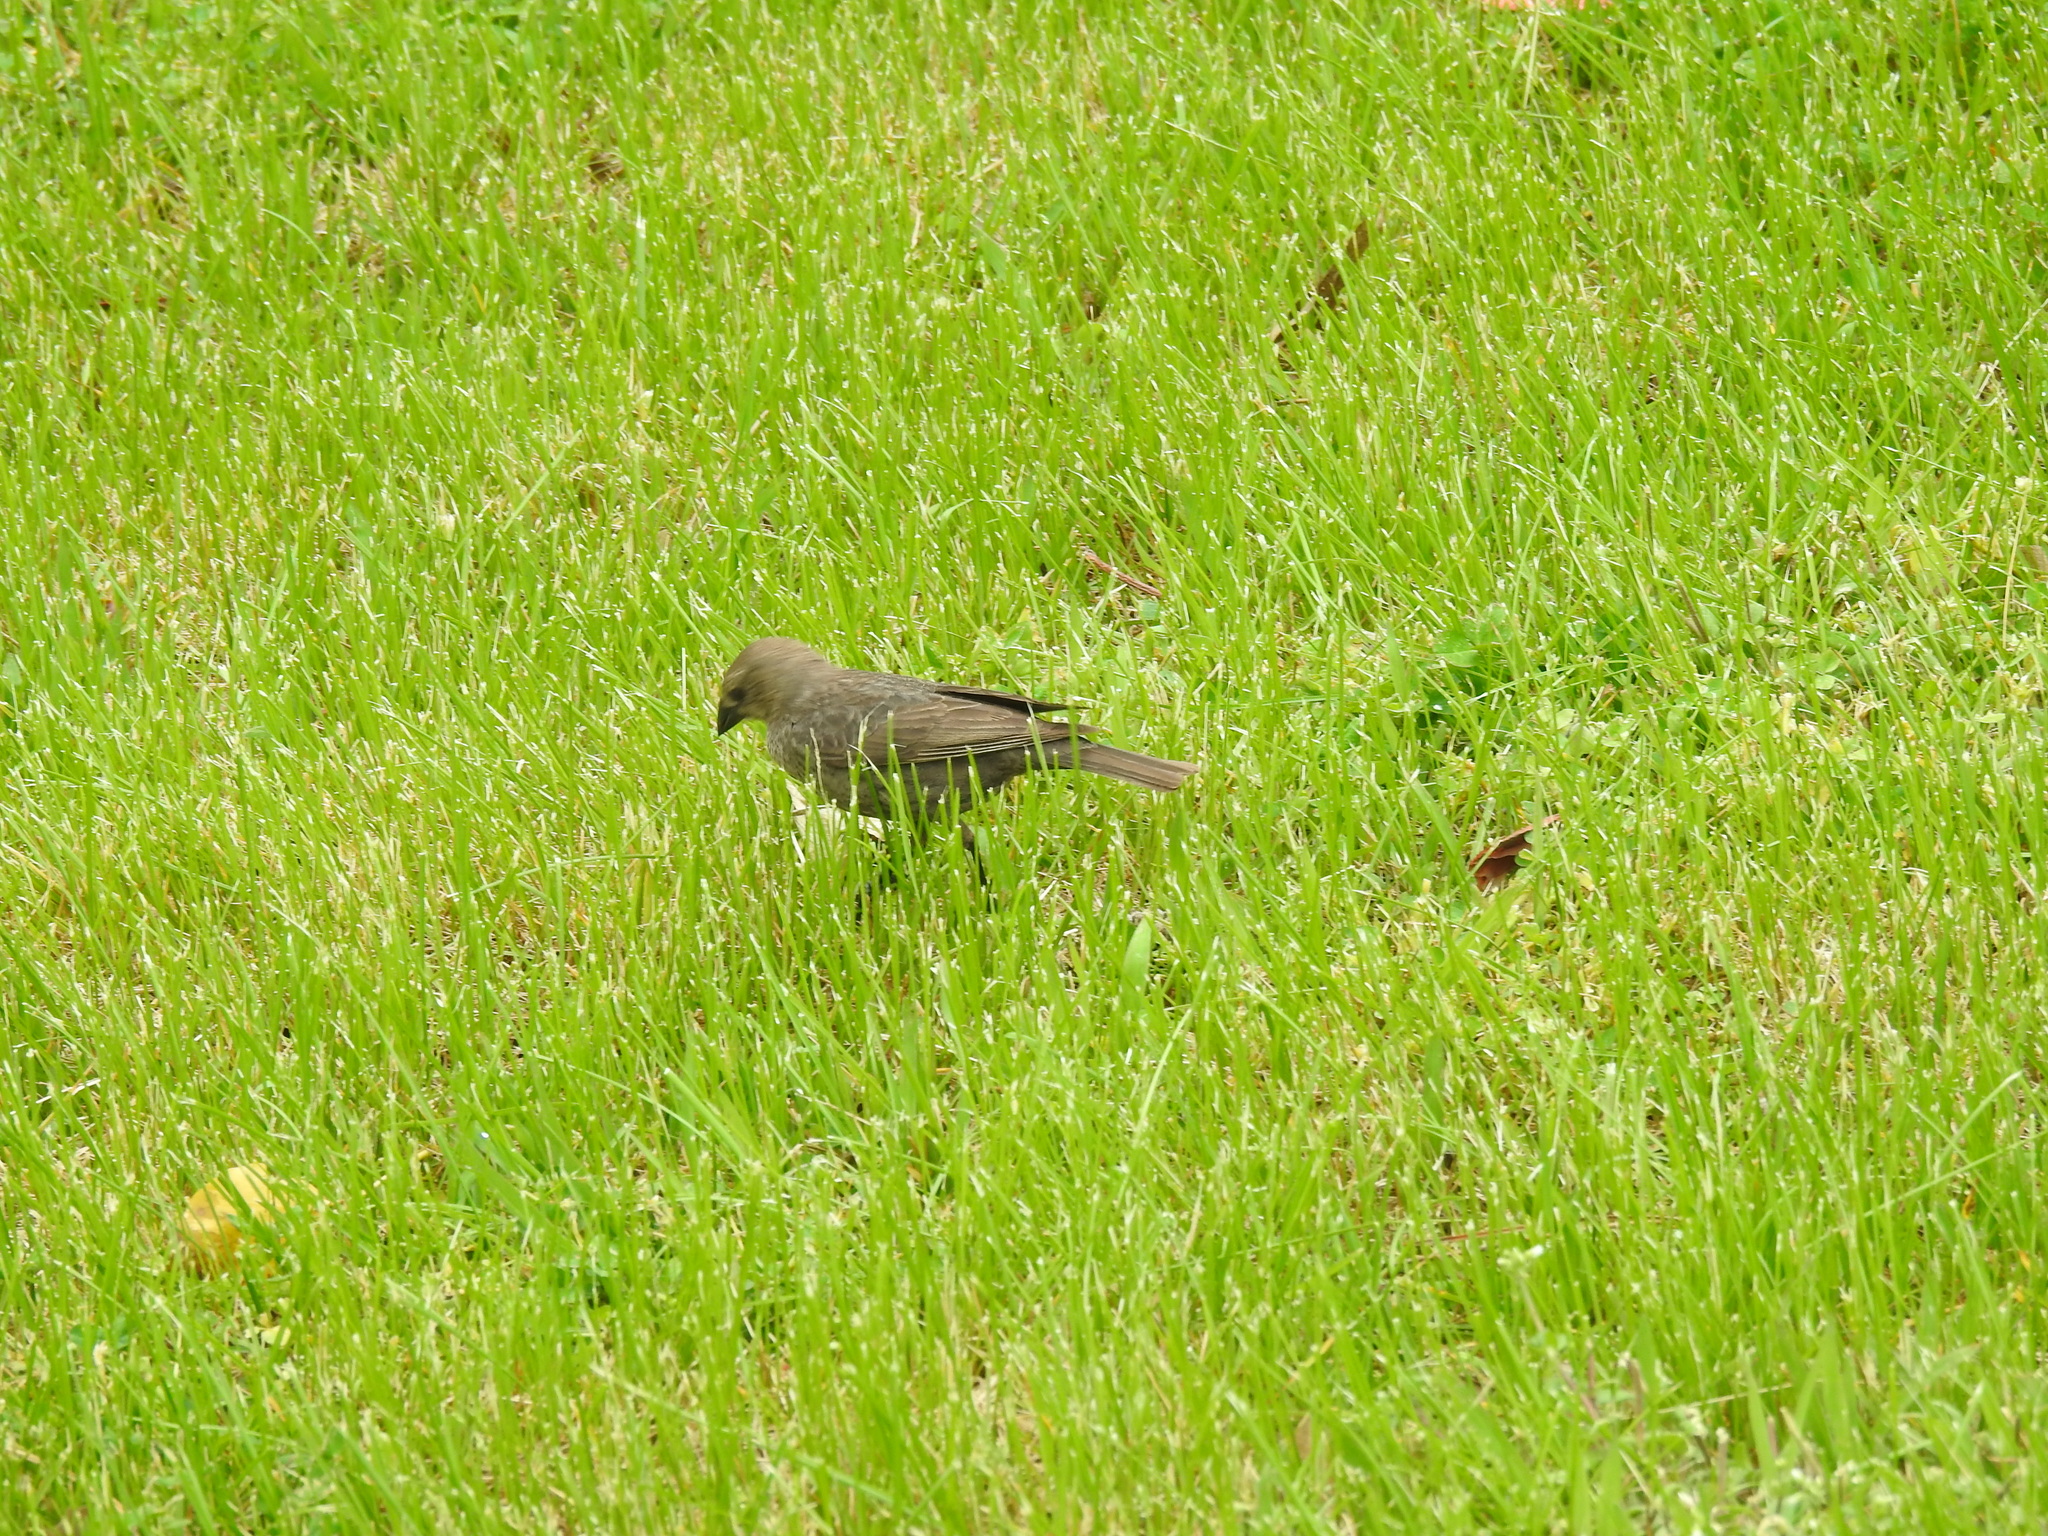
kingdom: Animalia
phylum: Chordata
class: Aves
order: Passeriformes
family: Icteridae
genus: Molothrus
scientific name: Molothrus ater
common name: Brown-headed cowbird
